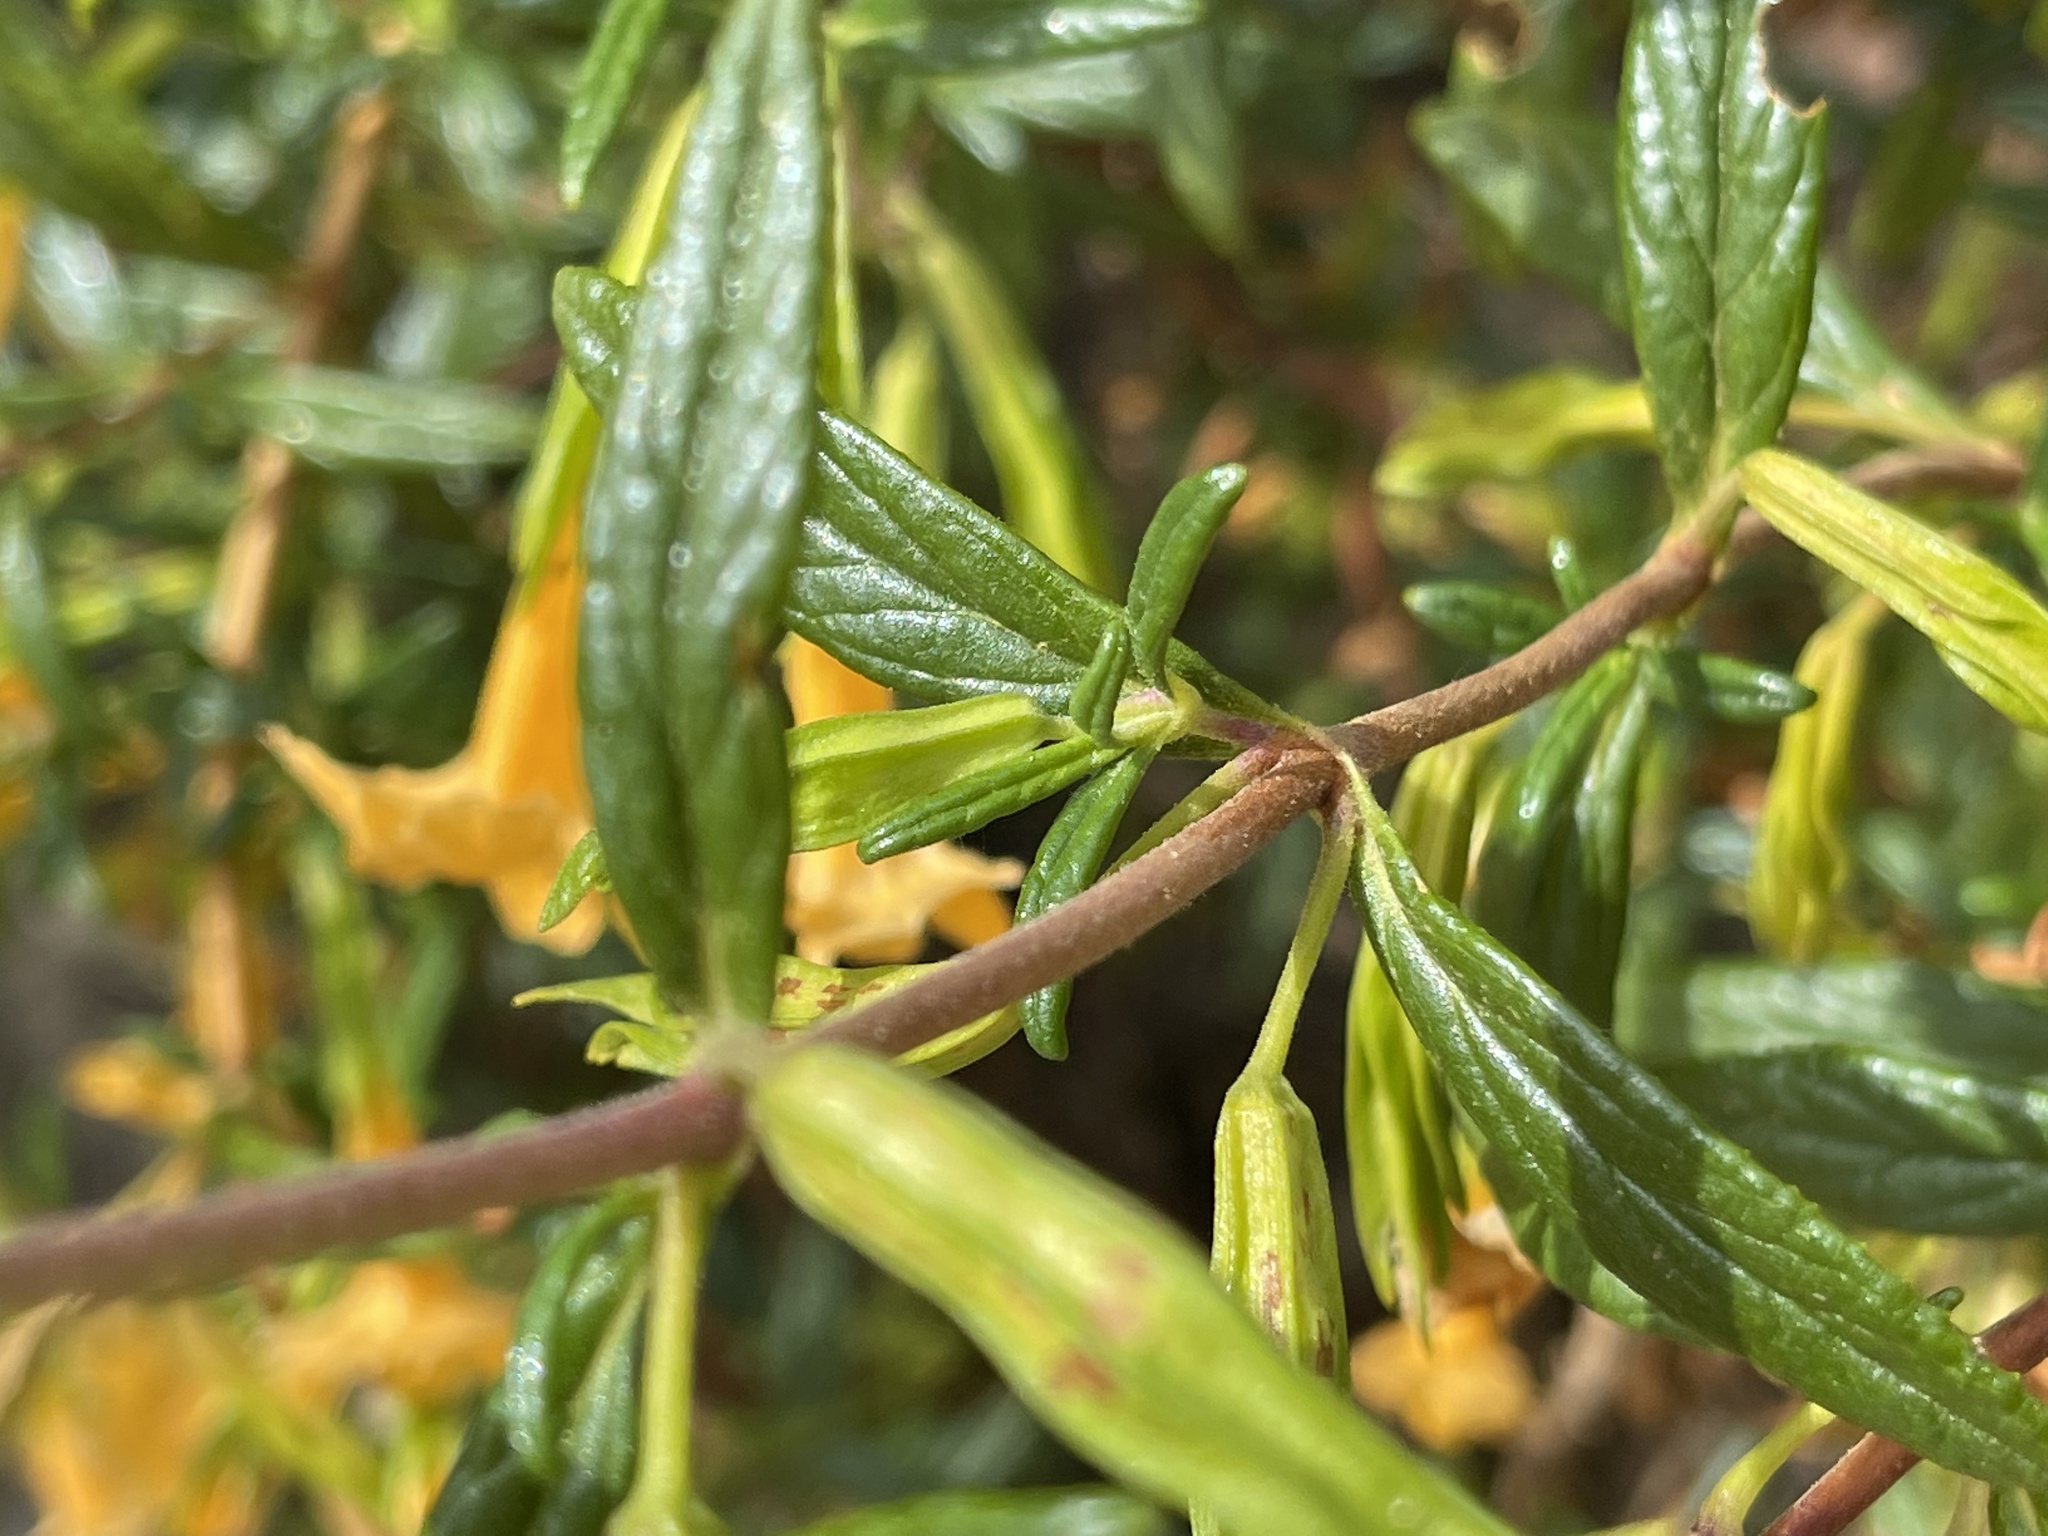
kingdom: Plantae
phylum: Tracheophyta
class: Magnoliopsida
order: Lamiales
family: Phrymaceae
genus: Diplacus
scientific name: Diplacus aurantiacus
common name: Bush monkey-flower
